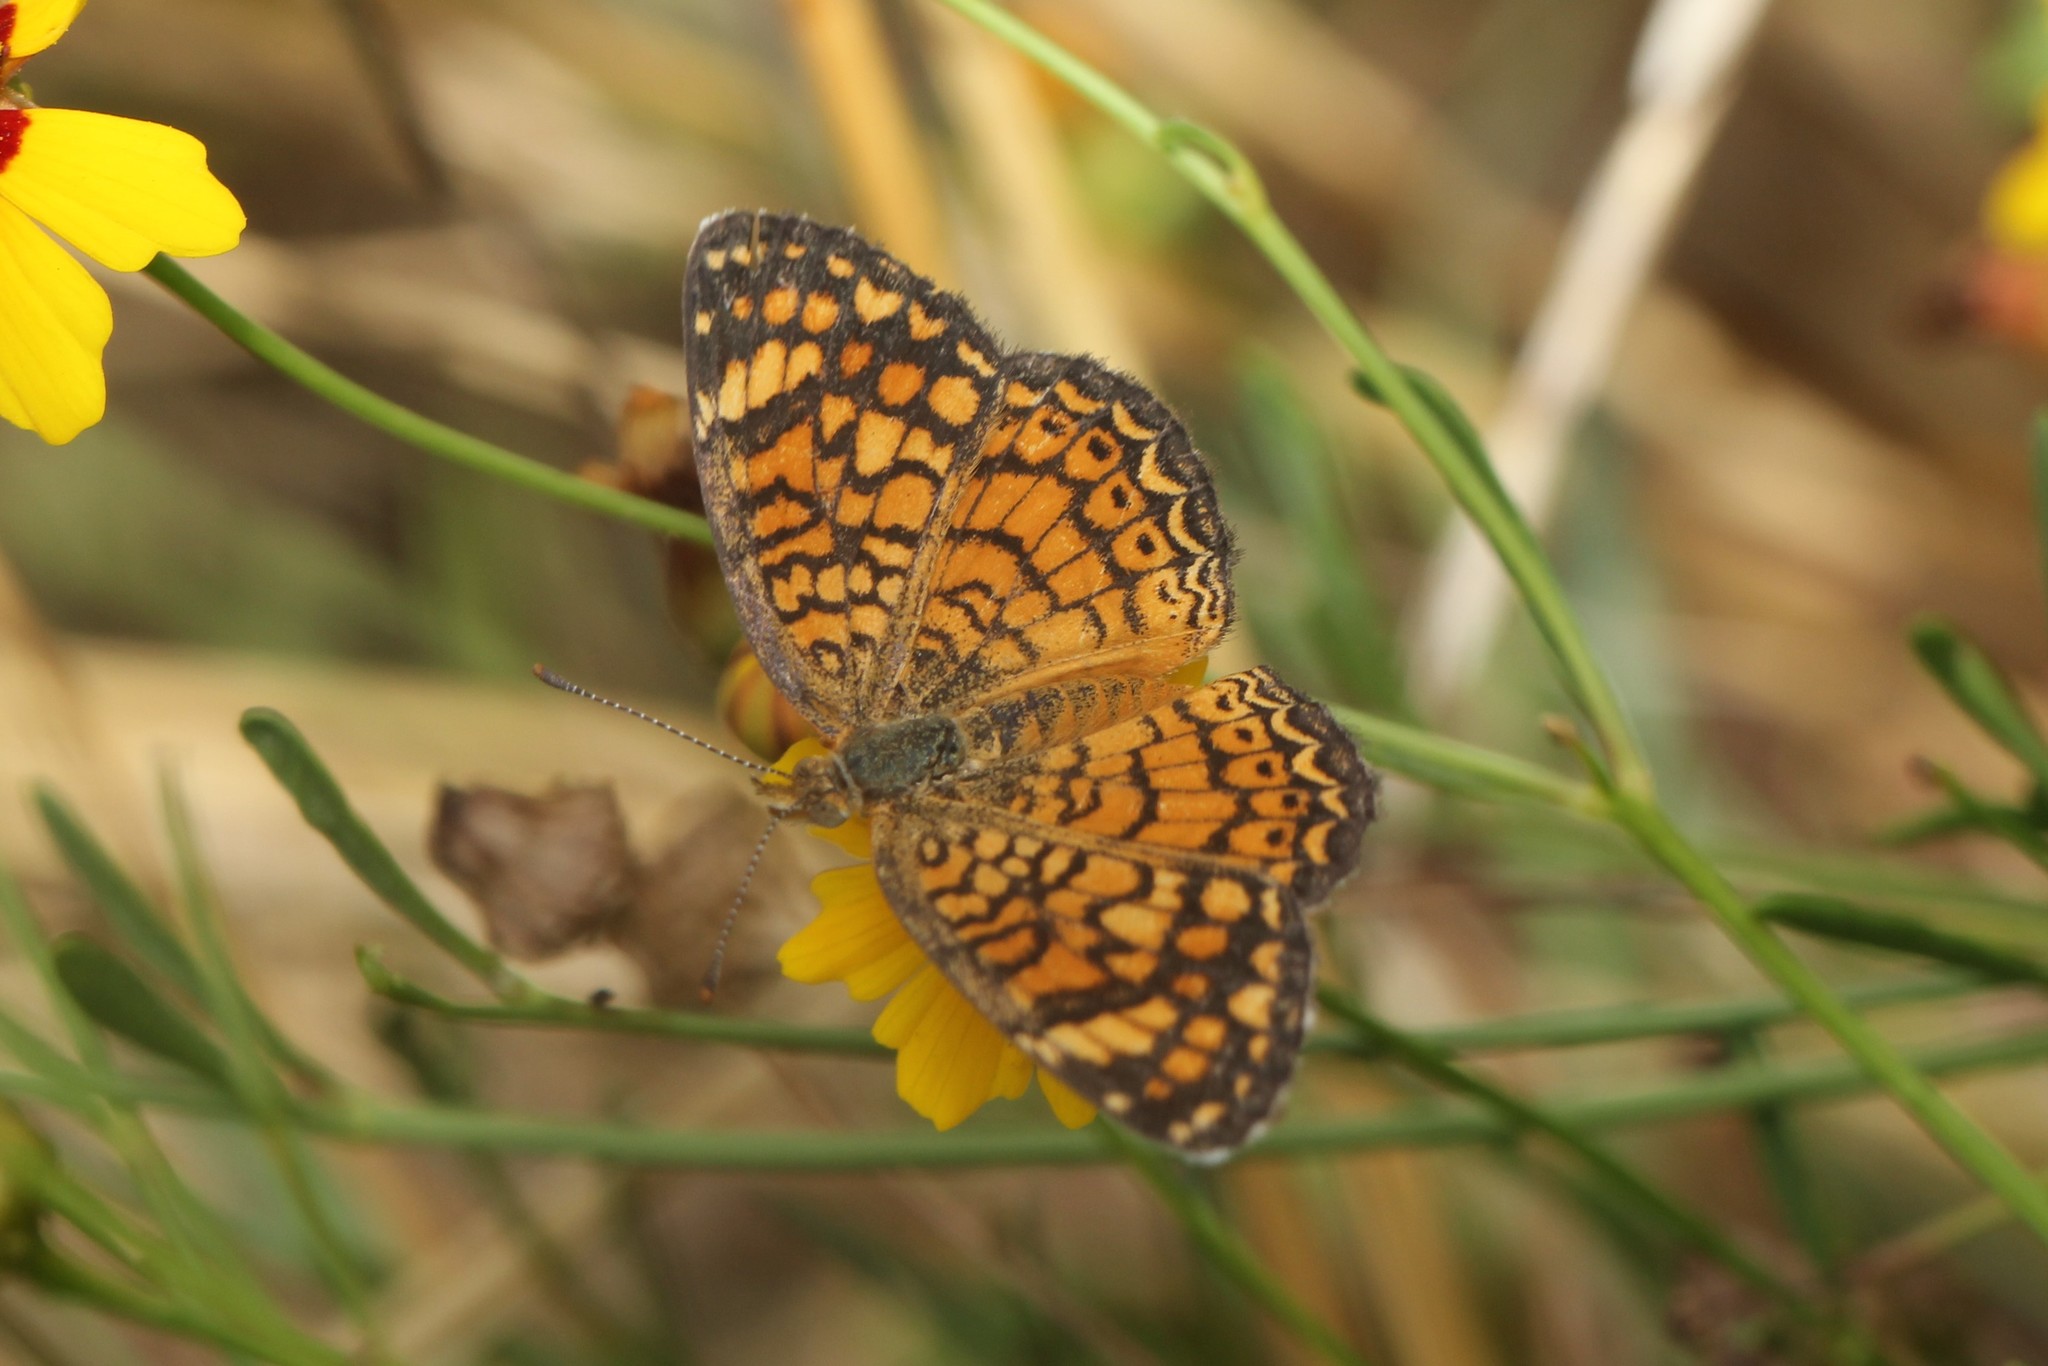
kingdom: Animalia
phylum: Arthropoda
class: Insecta
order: Lepidoptera
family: Nymphalidae
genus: Phyciodes
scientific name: Phyciodes vesta
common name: Vesta crescent
